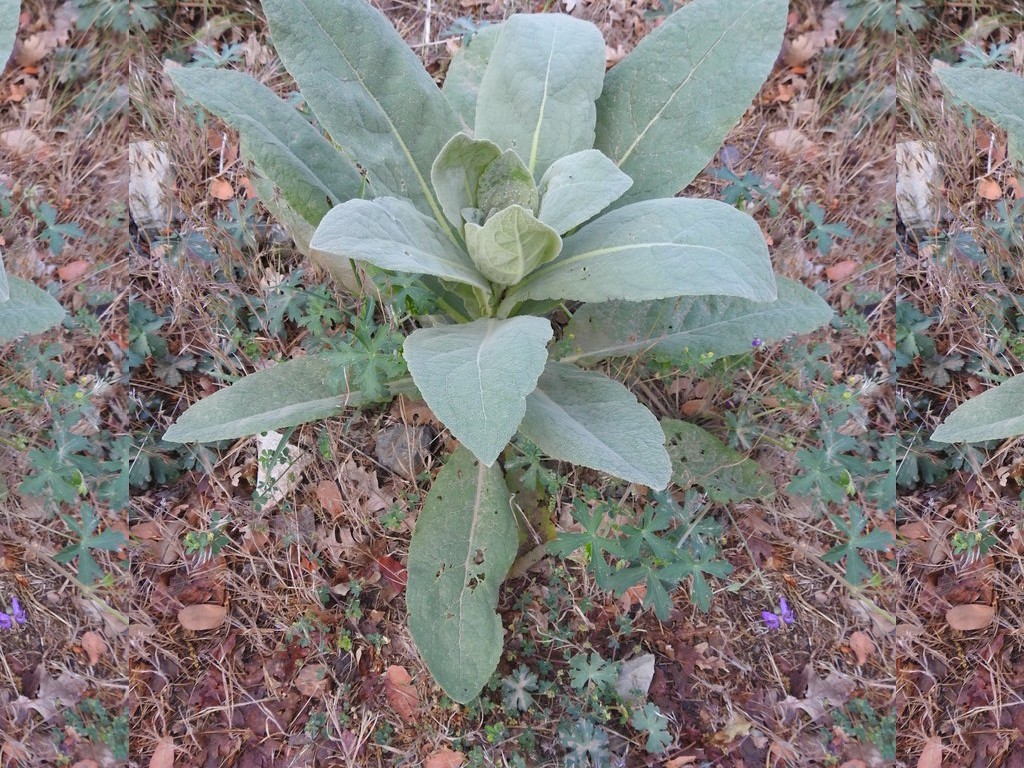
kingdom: Plantae
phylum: Tracheophyta
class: Magnoliopsida
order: Lamiales
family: Scrophulariaceae
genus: Verbascum
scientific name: Verbascum thapsus
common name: Common mullein
